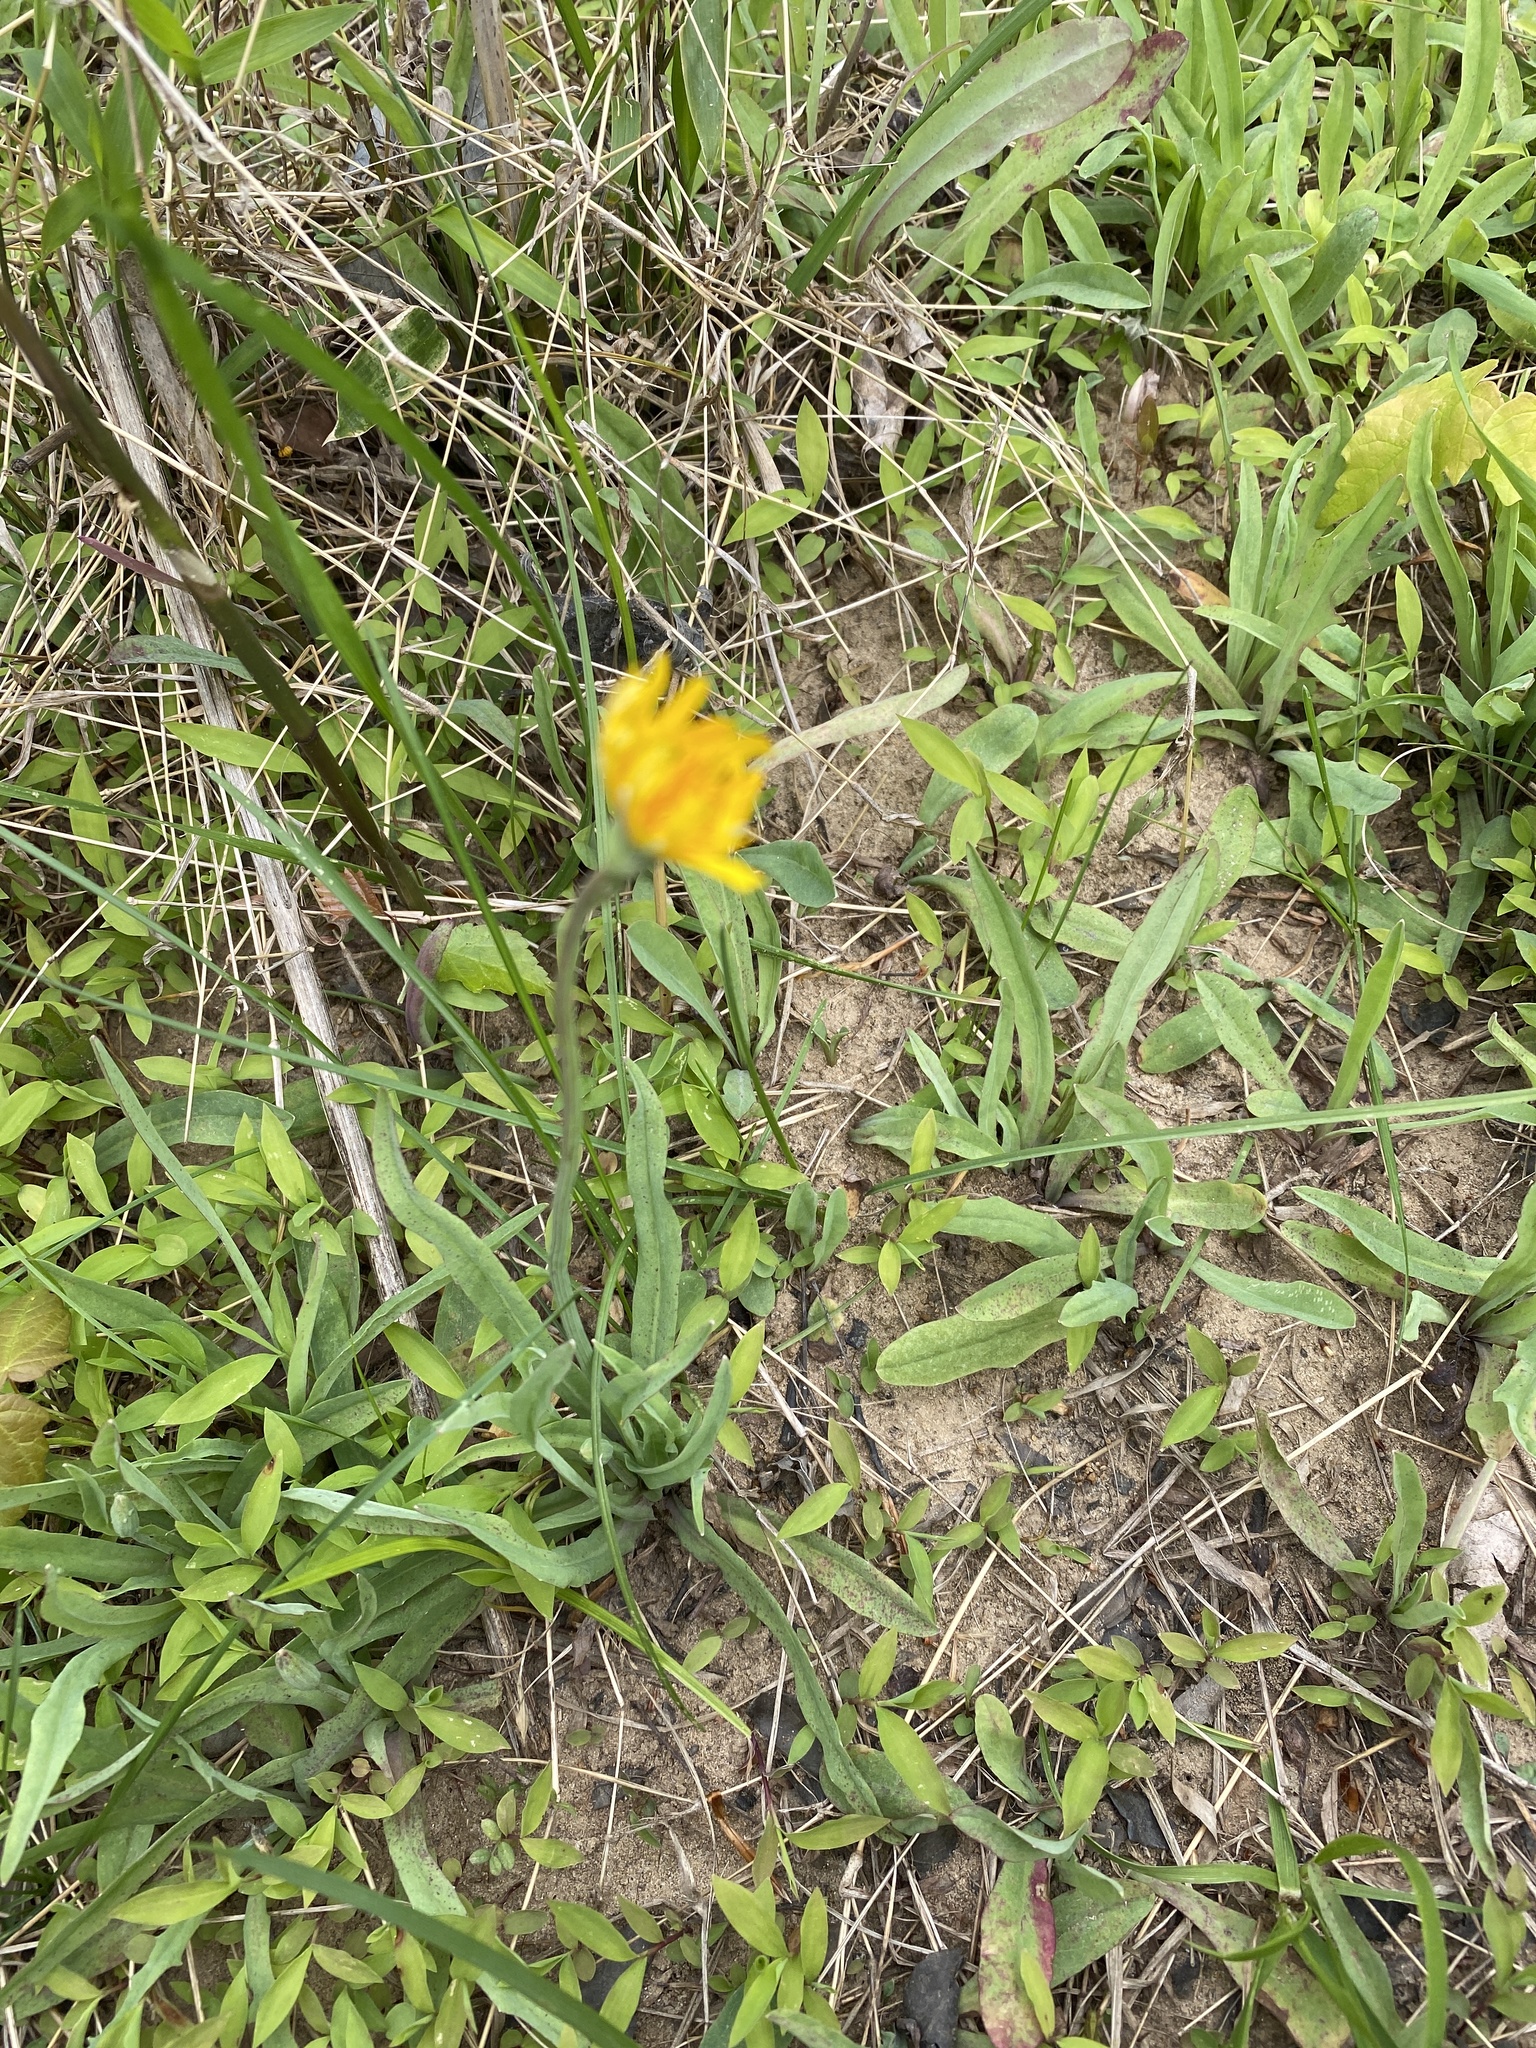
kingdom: Plantae
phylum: Tracheophyta
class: Magnoliopsida
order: Asterales
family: Asteraceae
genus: Krigia
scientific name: Krigia dandelion
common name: Colonial dwarf-dandelion
